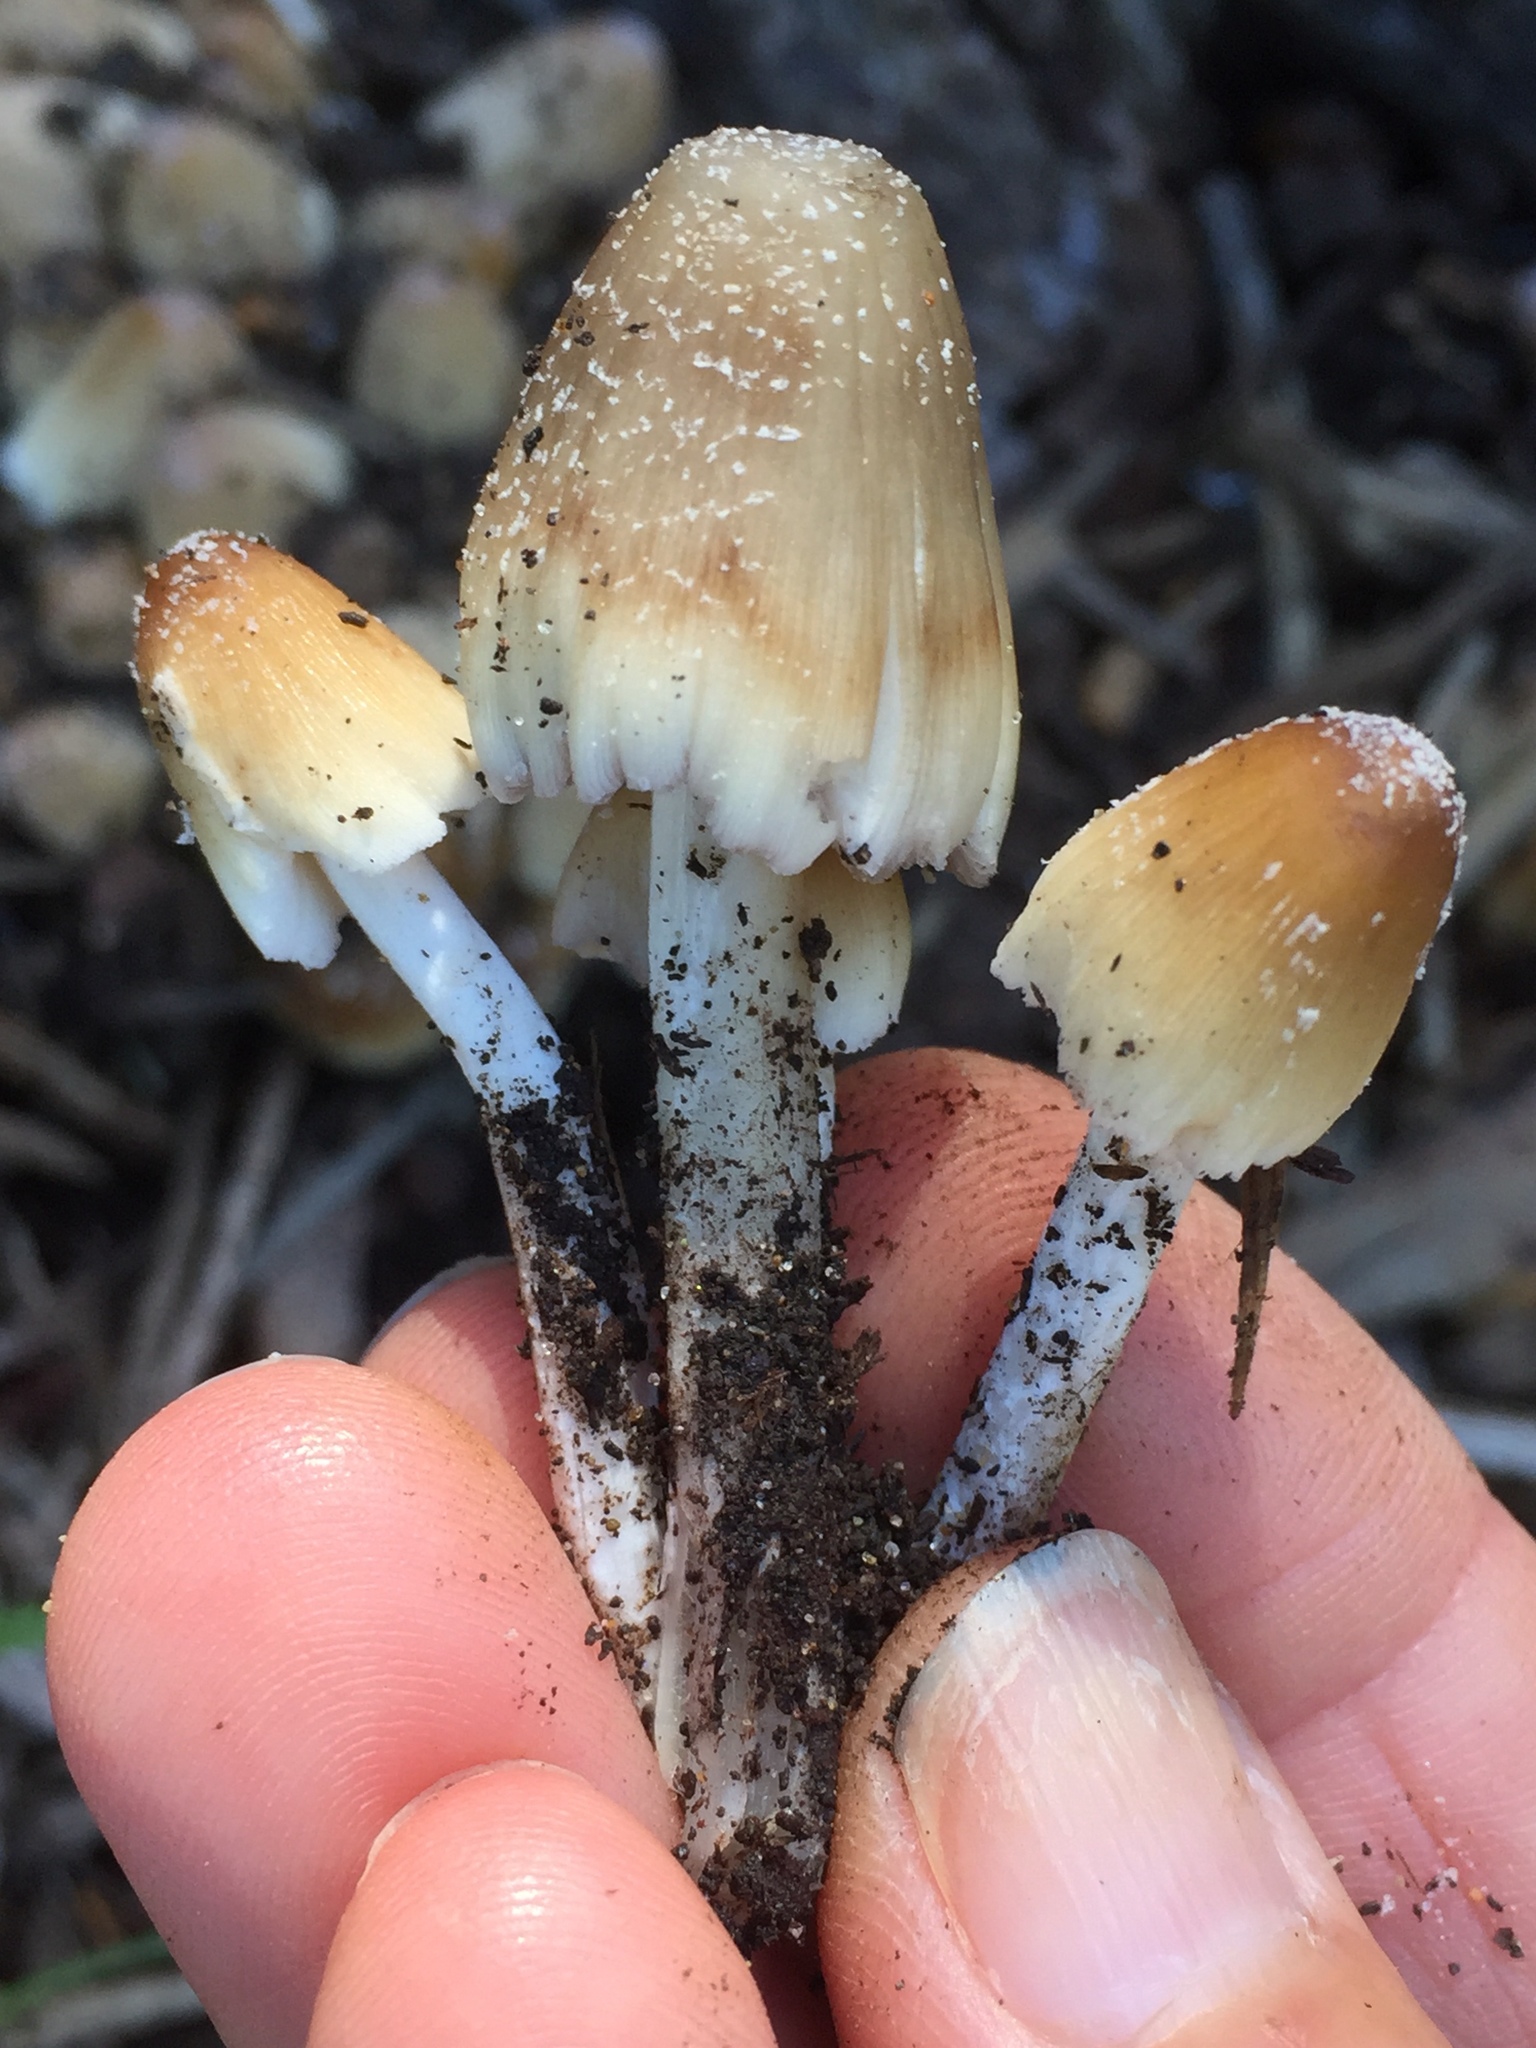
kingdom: Fungi
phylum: Basidiomycota
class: Agaricomycetes
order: Agaricales
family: Psathyrellaceae
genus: Coprinellus
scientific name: Coprinellus micaceus
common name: Glistening ink-cap
